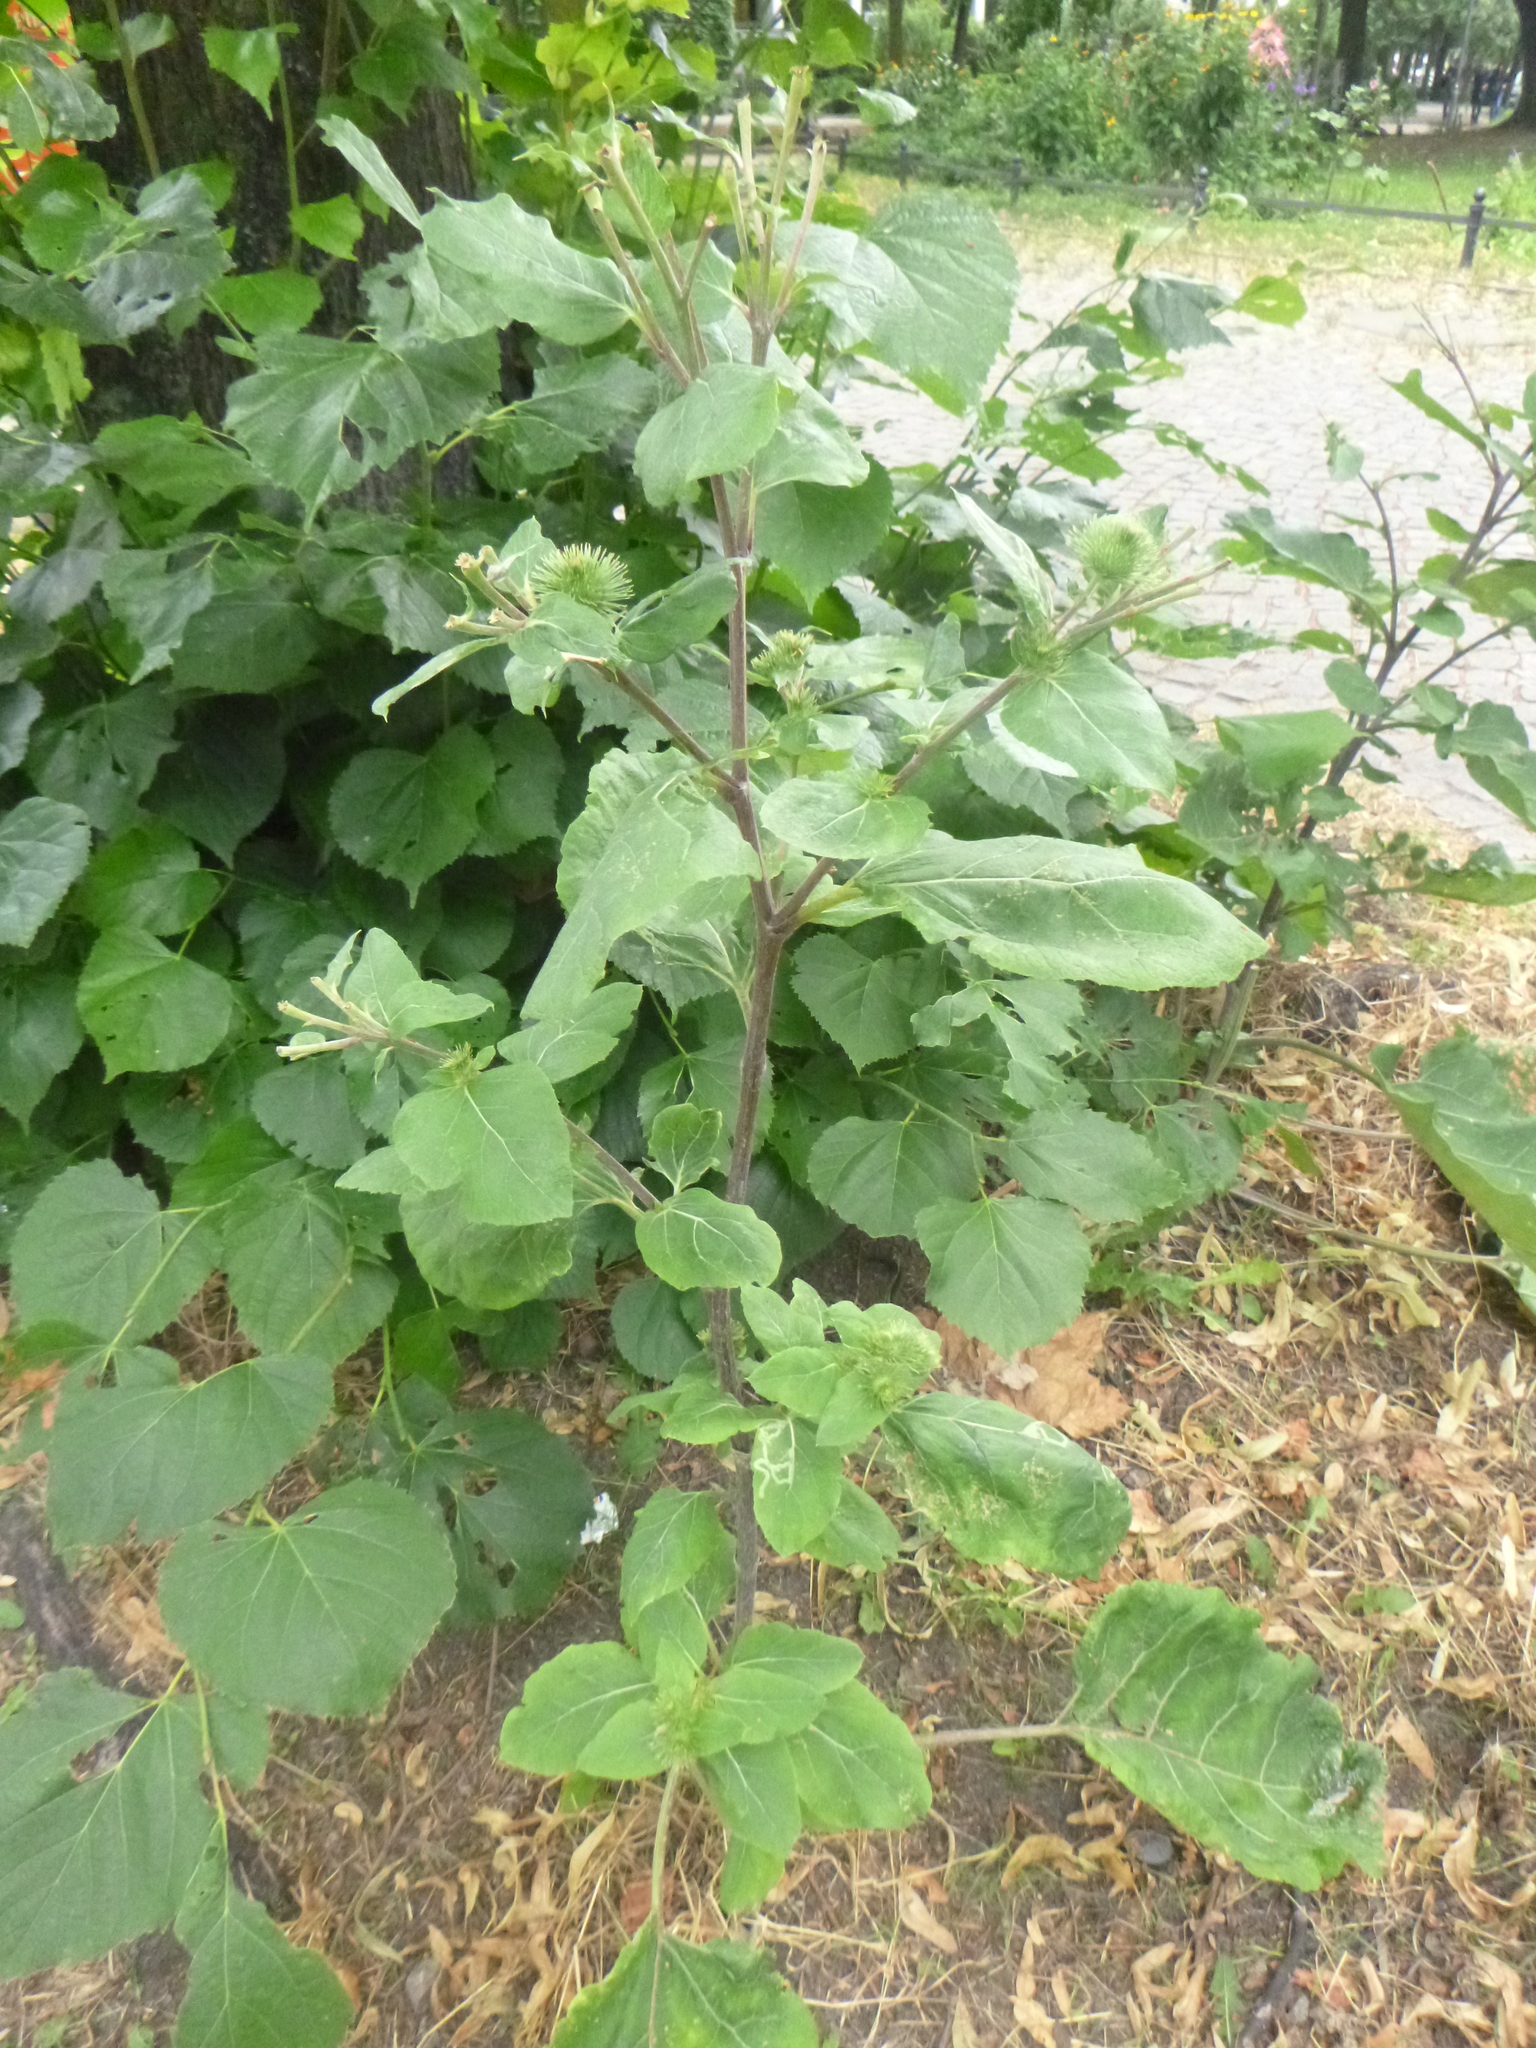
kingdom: Plantae
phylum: Tracheophyta
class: Magnoliopsida
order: Asterales
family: Asteraceae
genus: Arctium
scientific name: Arctium lappa
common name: Greater burdock
